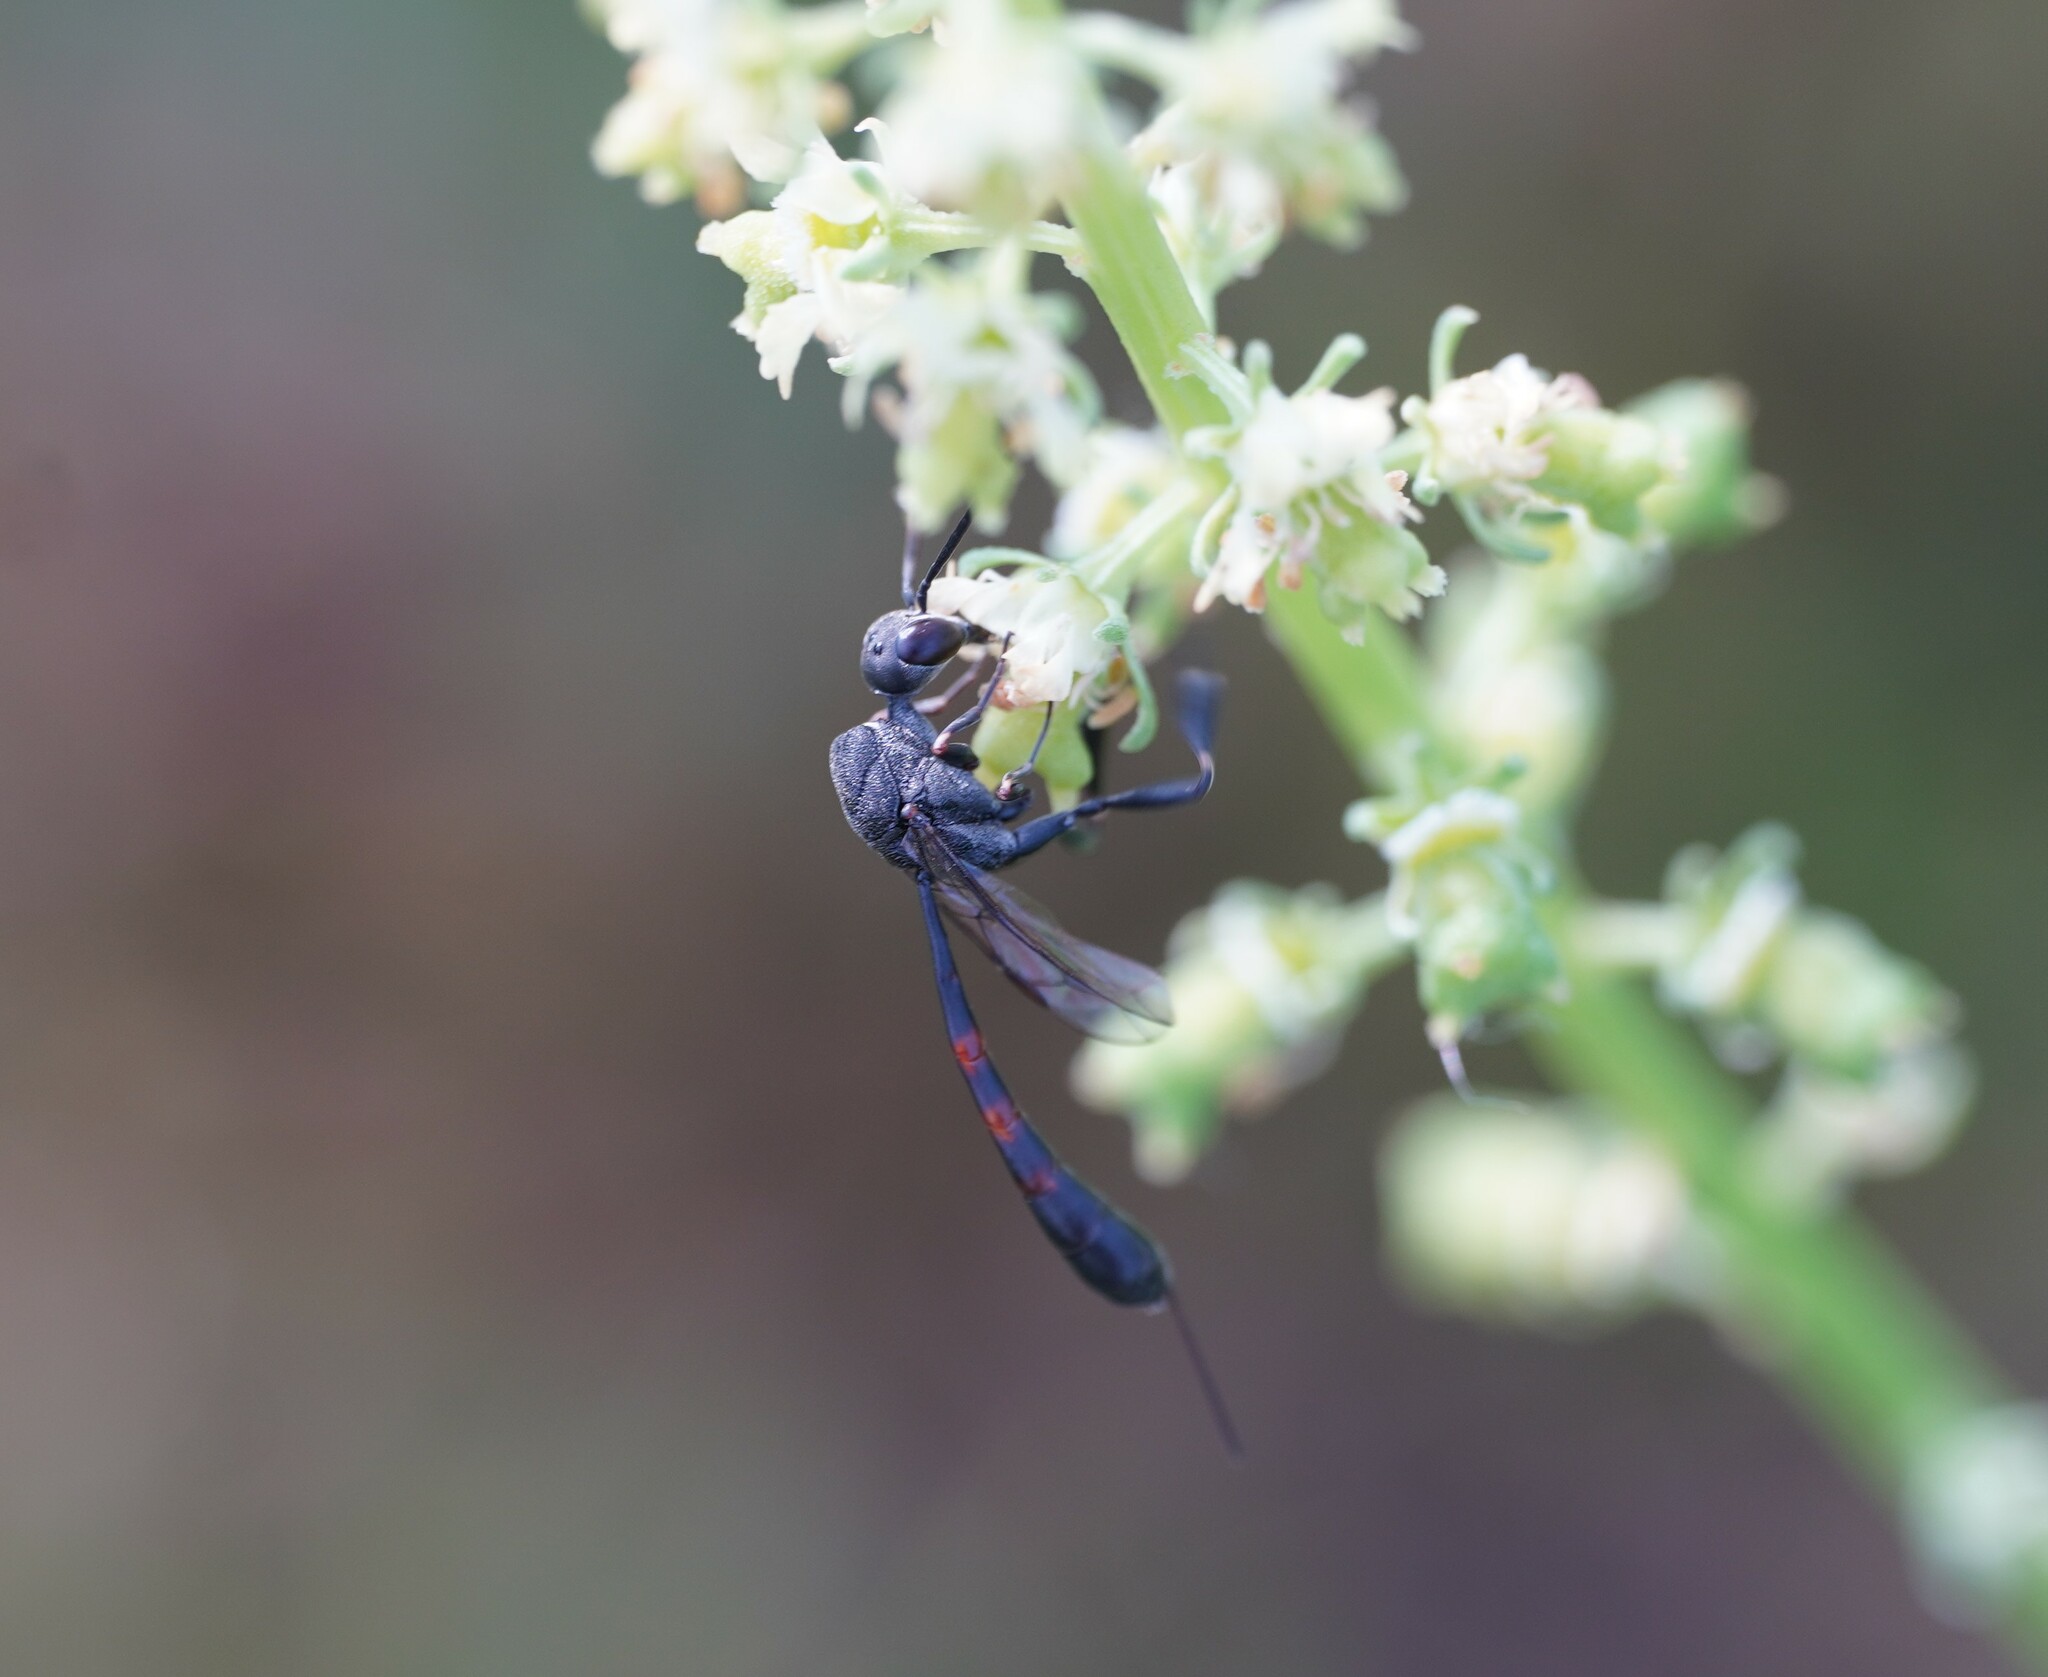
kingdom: Animalia
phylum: Arthropoda
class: Insecta
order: Hymenoptera
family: Gasteruptiidae
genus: Gasteruption
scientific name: Gasteruption
